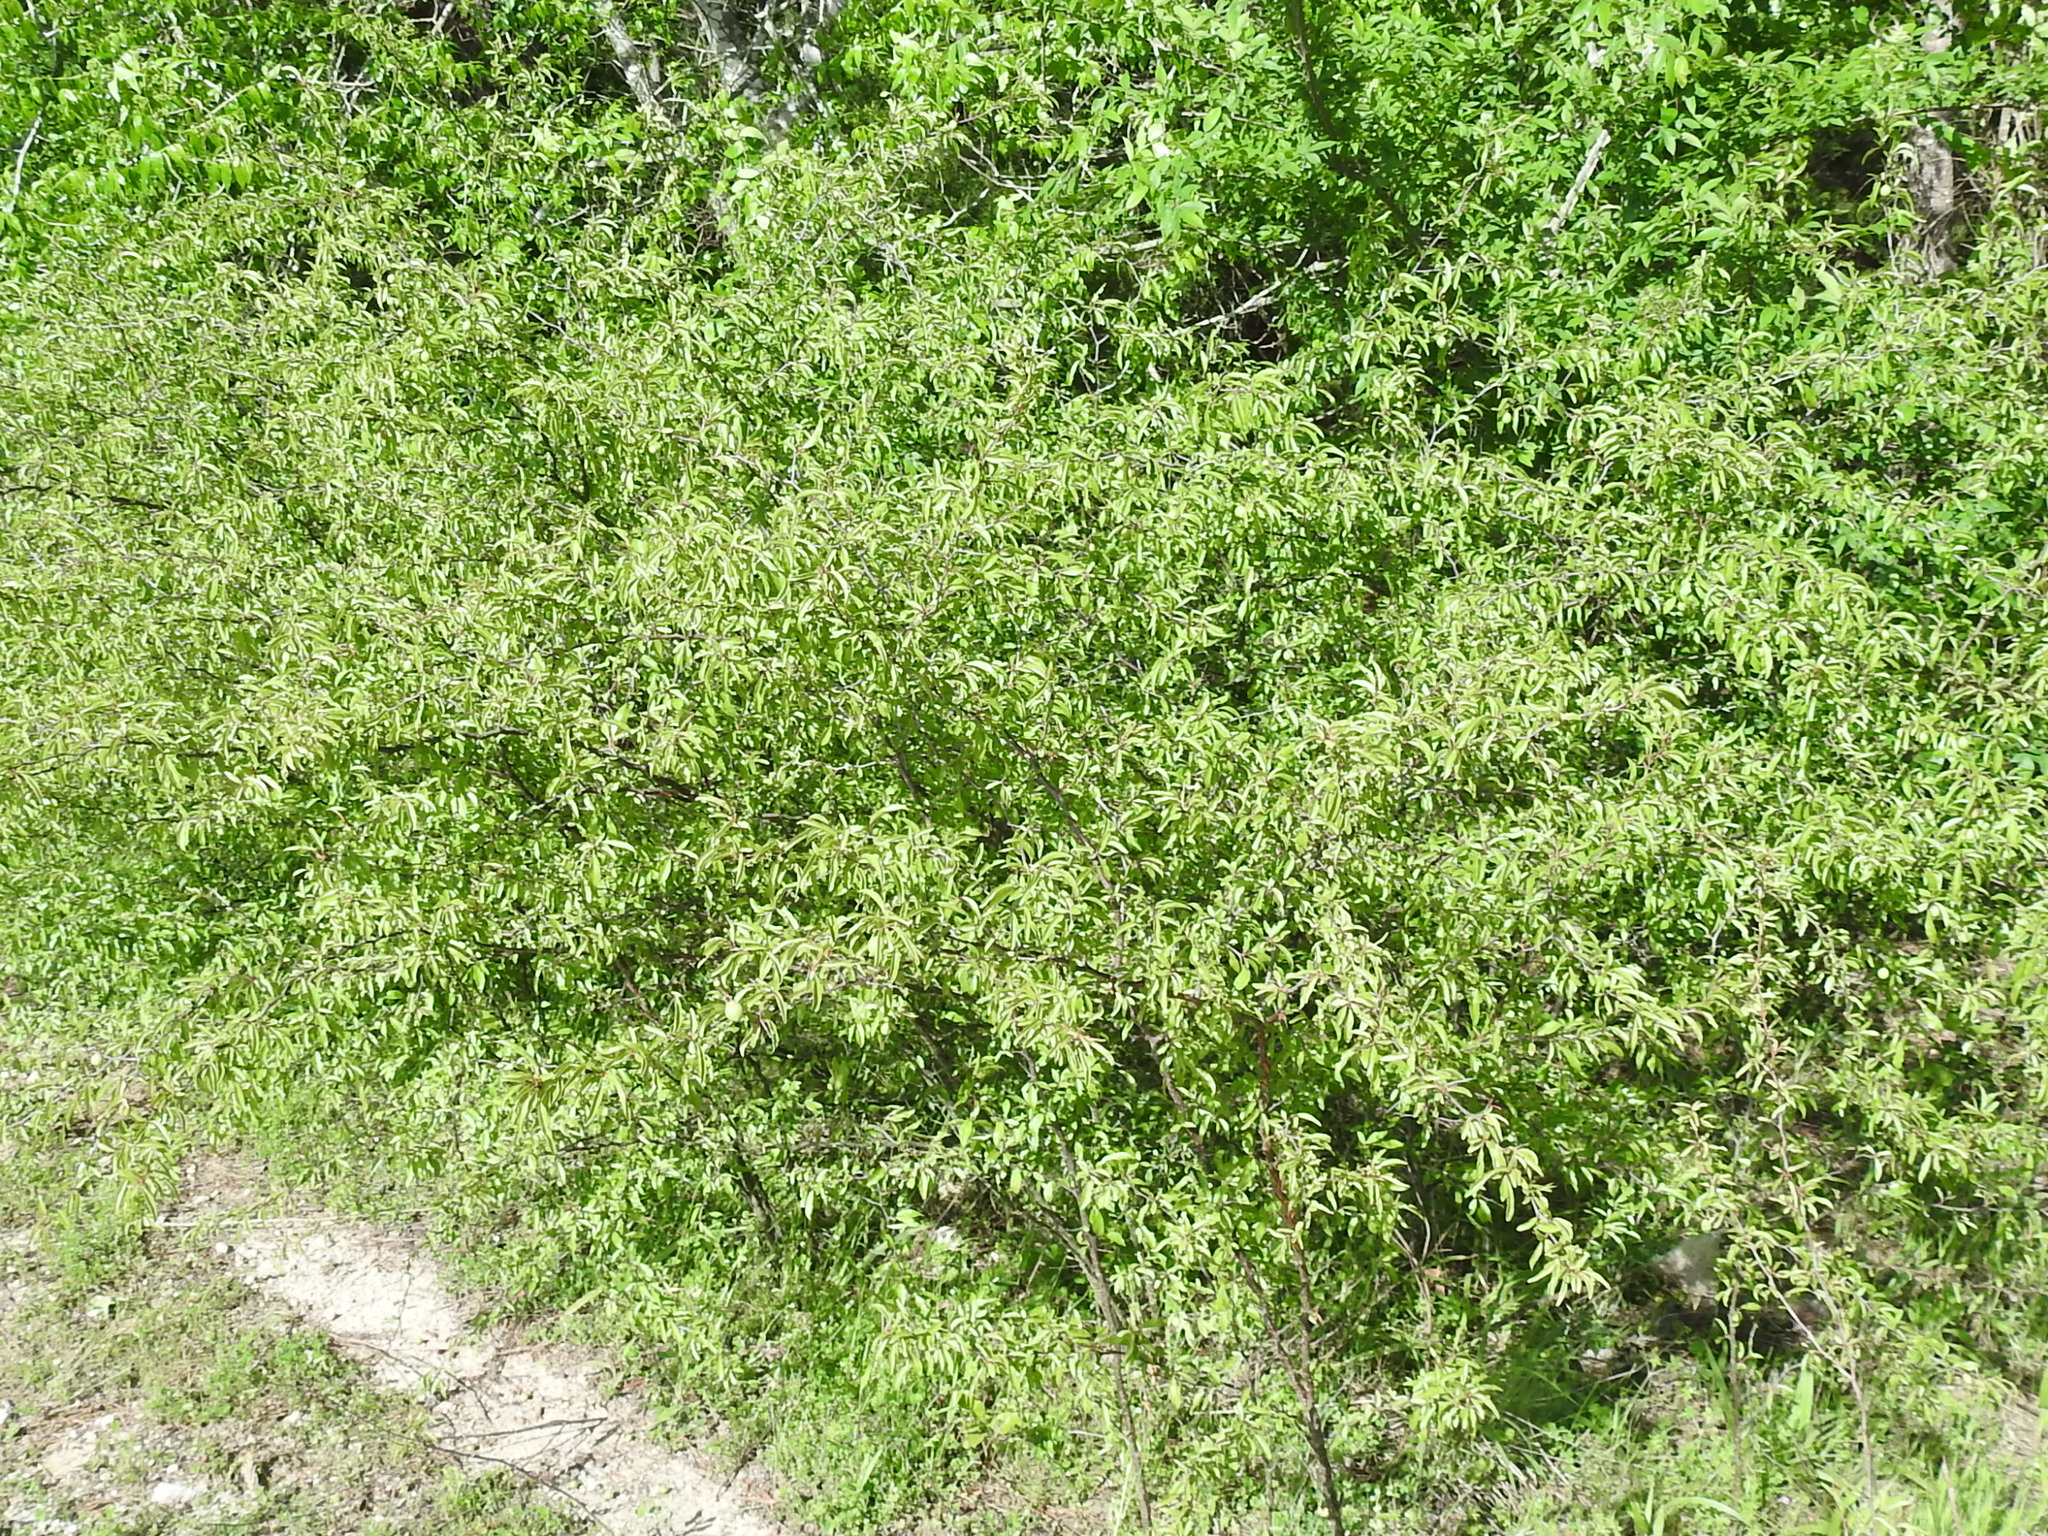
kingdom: Plantae
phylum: Tracheophyta
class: Magnoliopsida
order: Rosales
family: Rosaceae
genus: Prunus
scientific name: Prunus angustifolia
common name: Cherokee plum
